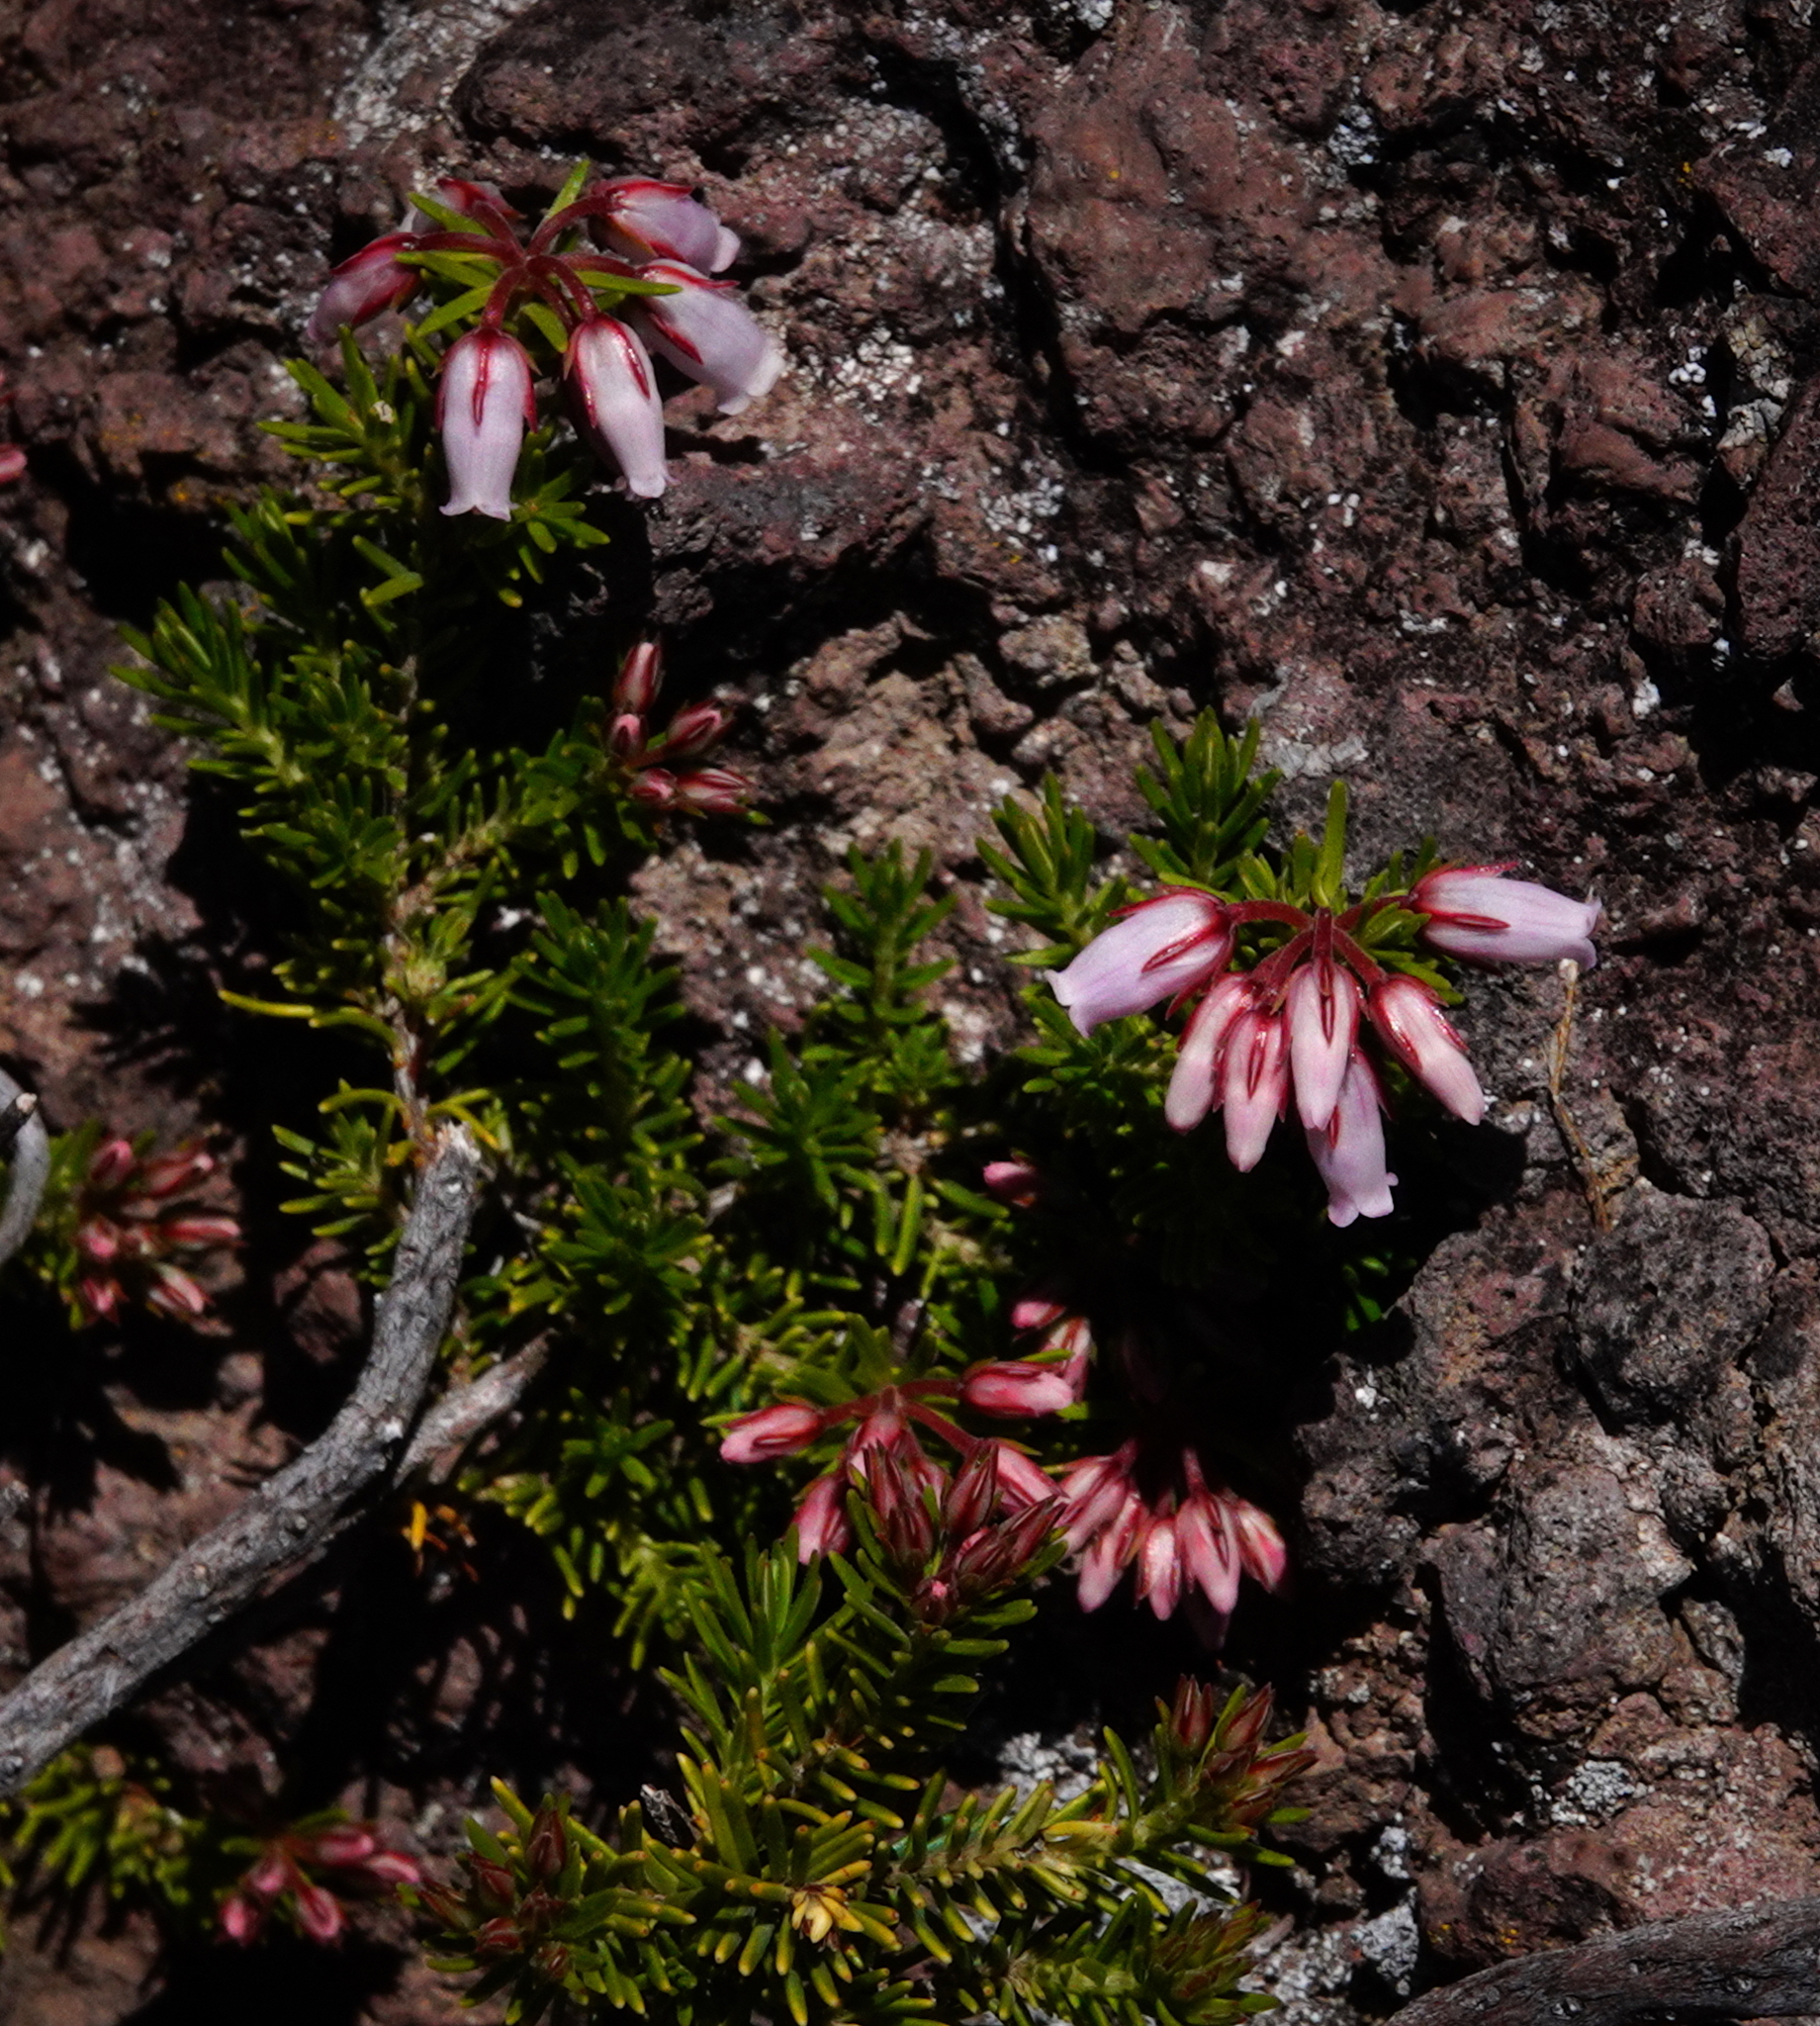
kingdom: Plantae
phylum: Tracheophyta
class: Magnoliopsida
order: Ericales
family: Ericaceae
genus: Erica
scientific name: Erica maderensis
